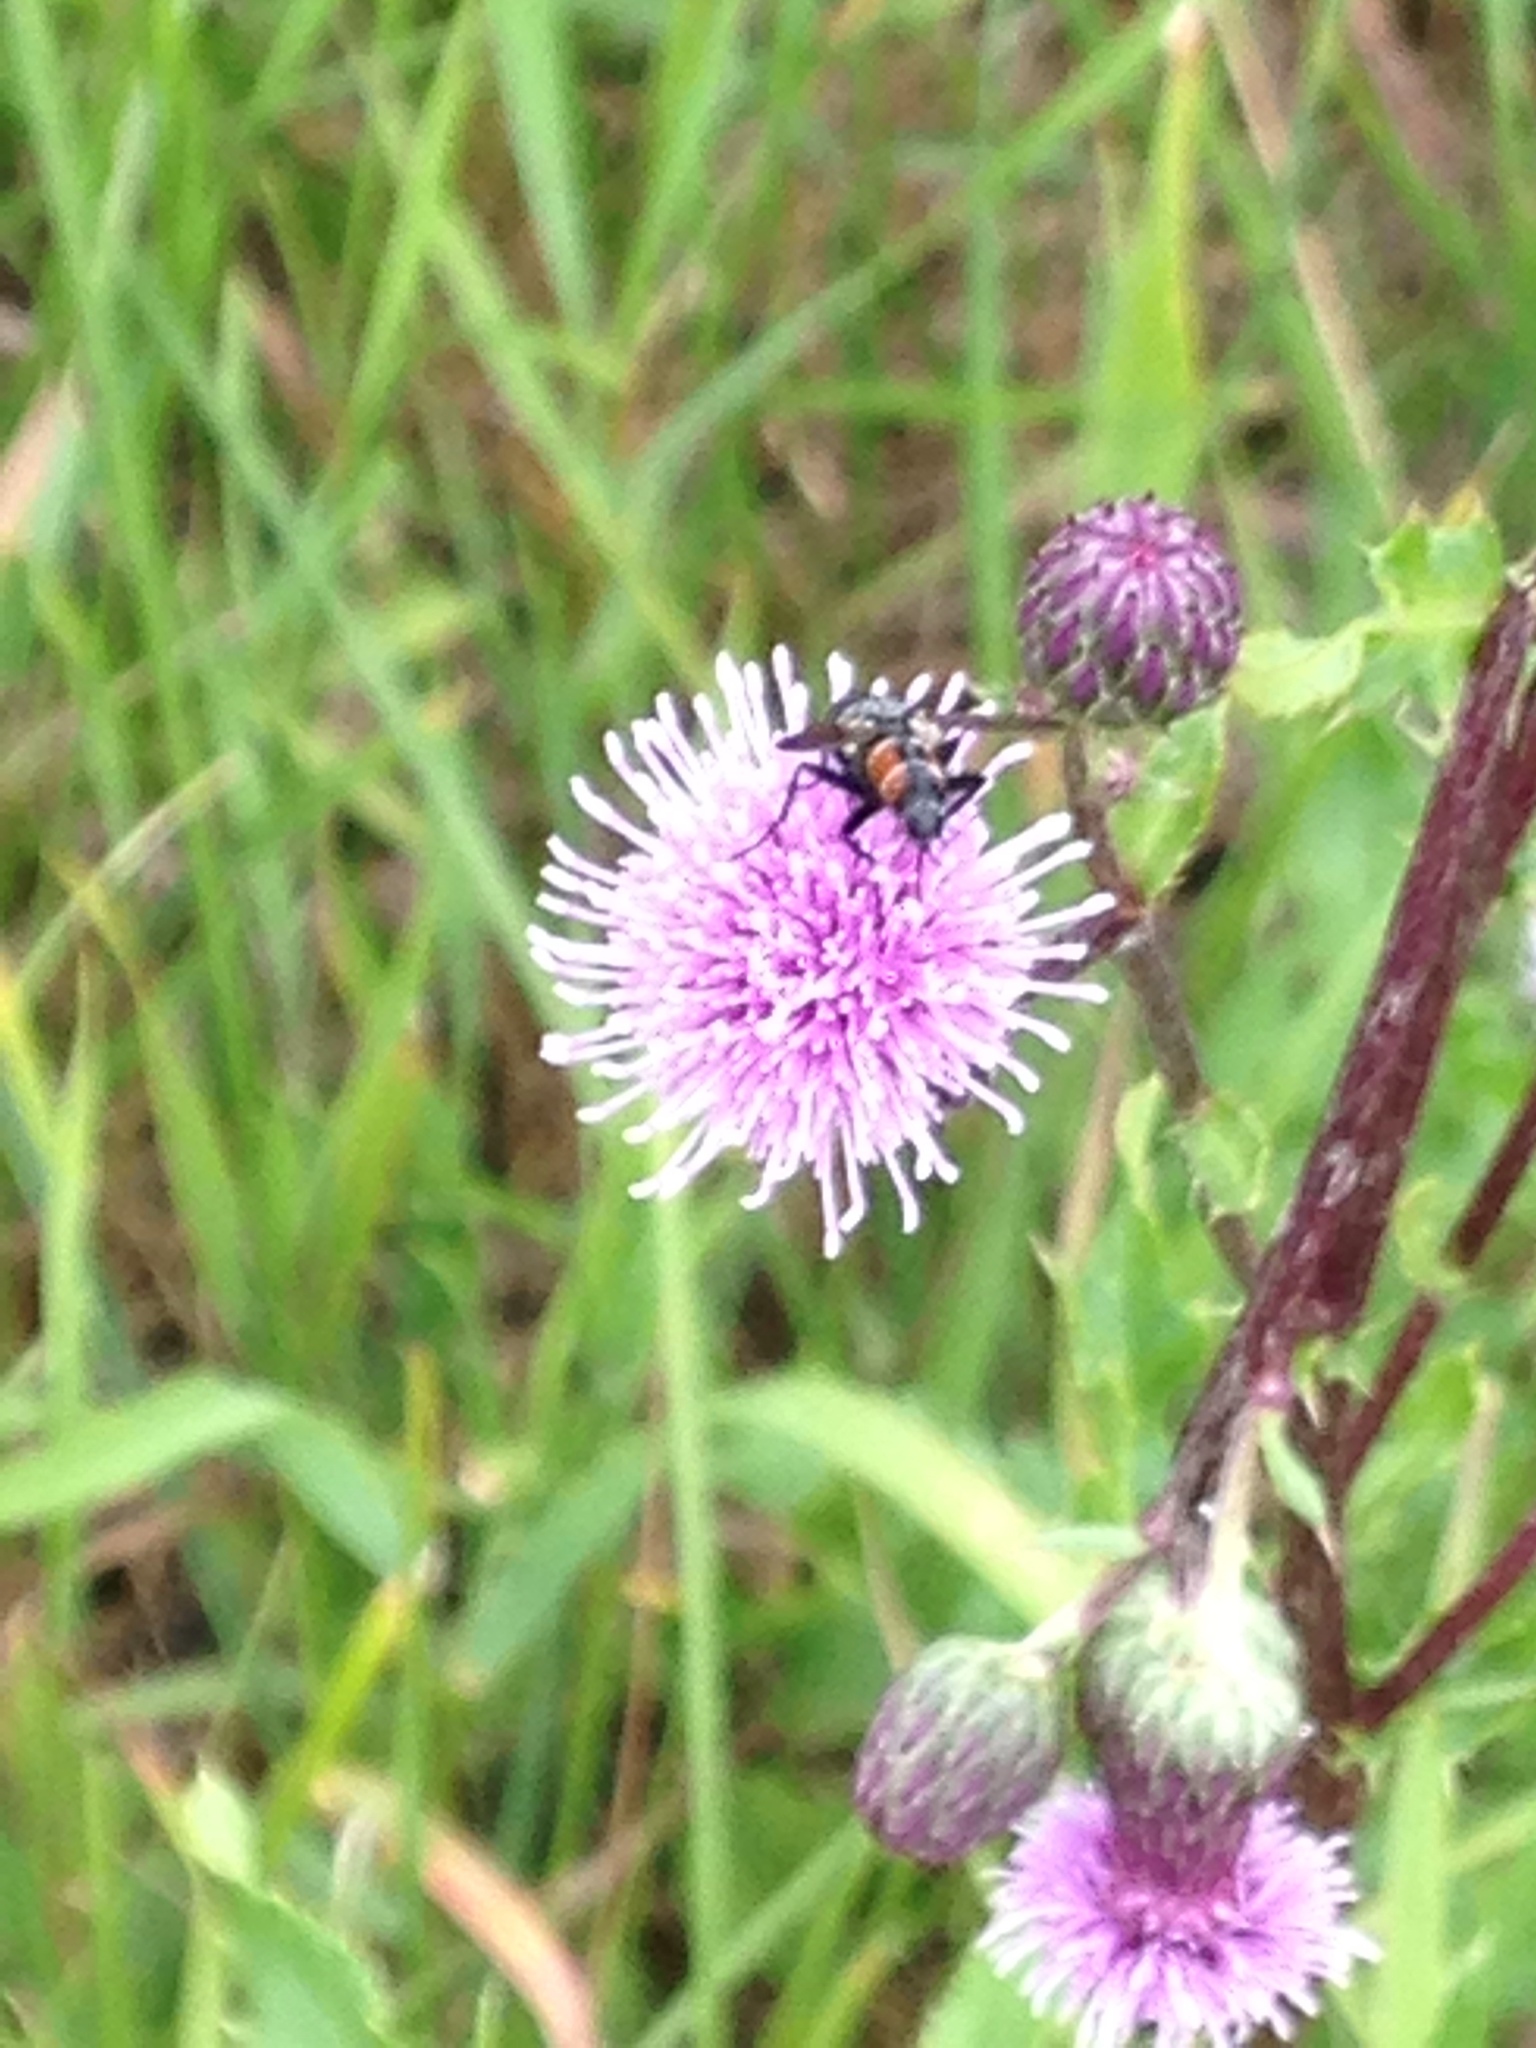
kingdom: Animalia
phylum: Arthropoda
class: Insecta
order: Diptera
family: Tachinidae
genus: Eriothrix
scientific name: Eriothrix rufomaculatus
